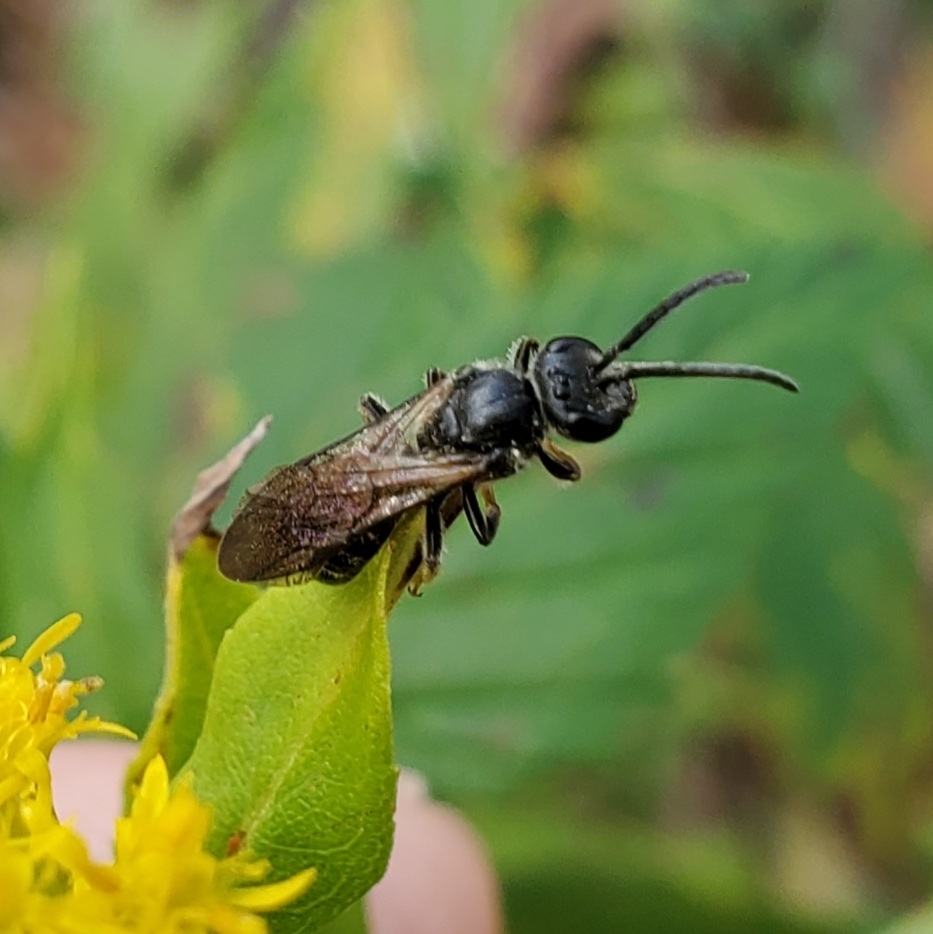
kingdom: Animalia
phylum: Arthropoda
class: Insecta
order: Hymenoptera
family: Halictidae
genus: Lasioglossum
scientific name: Lasioglossum fuscipenne
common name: Brown-winged sweat bee
